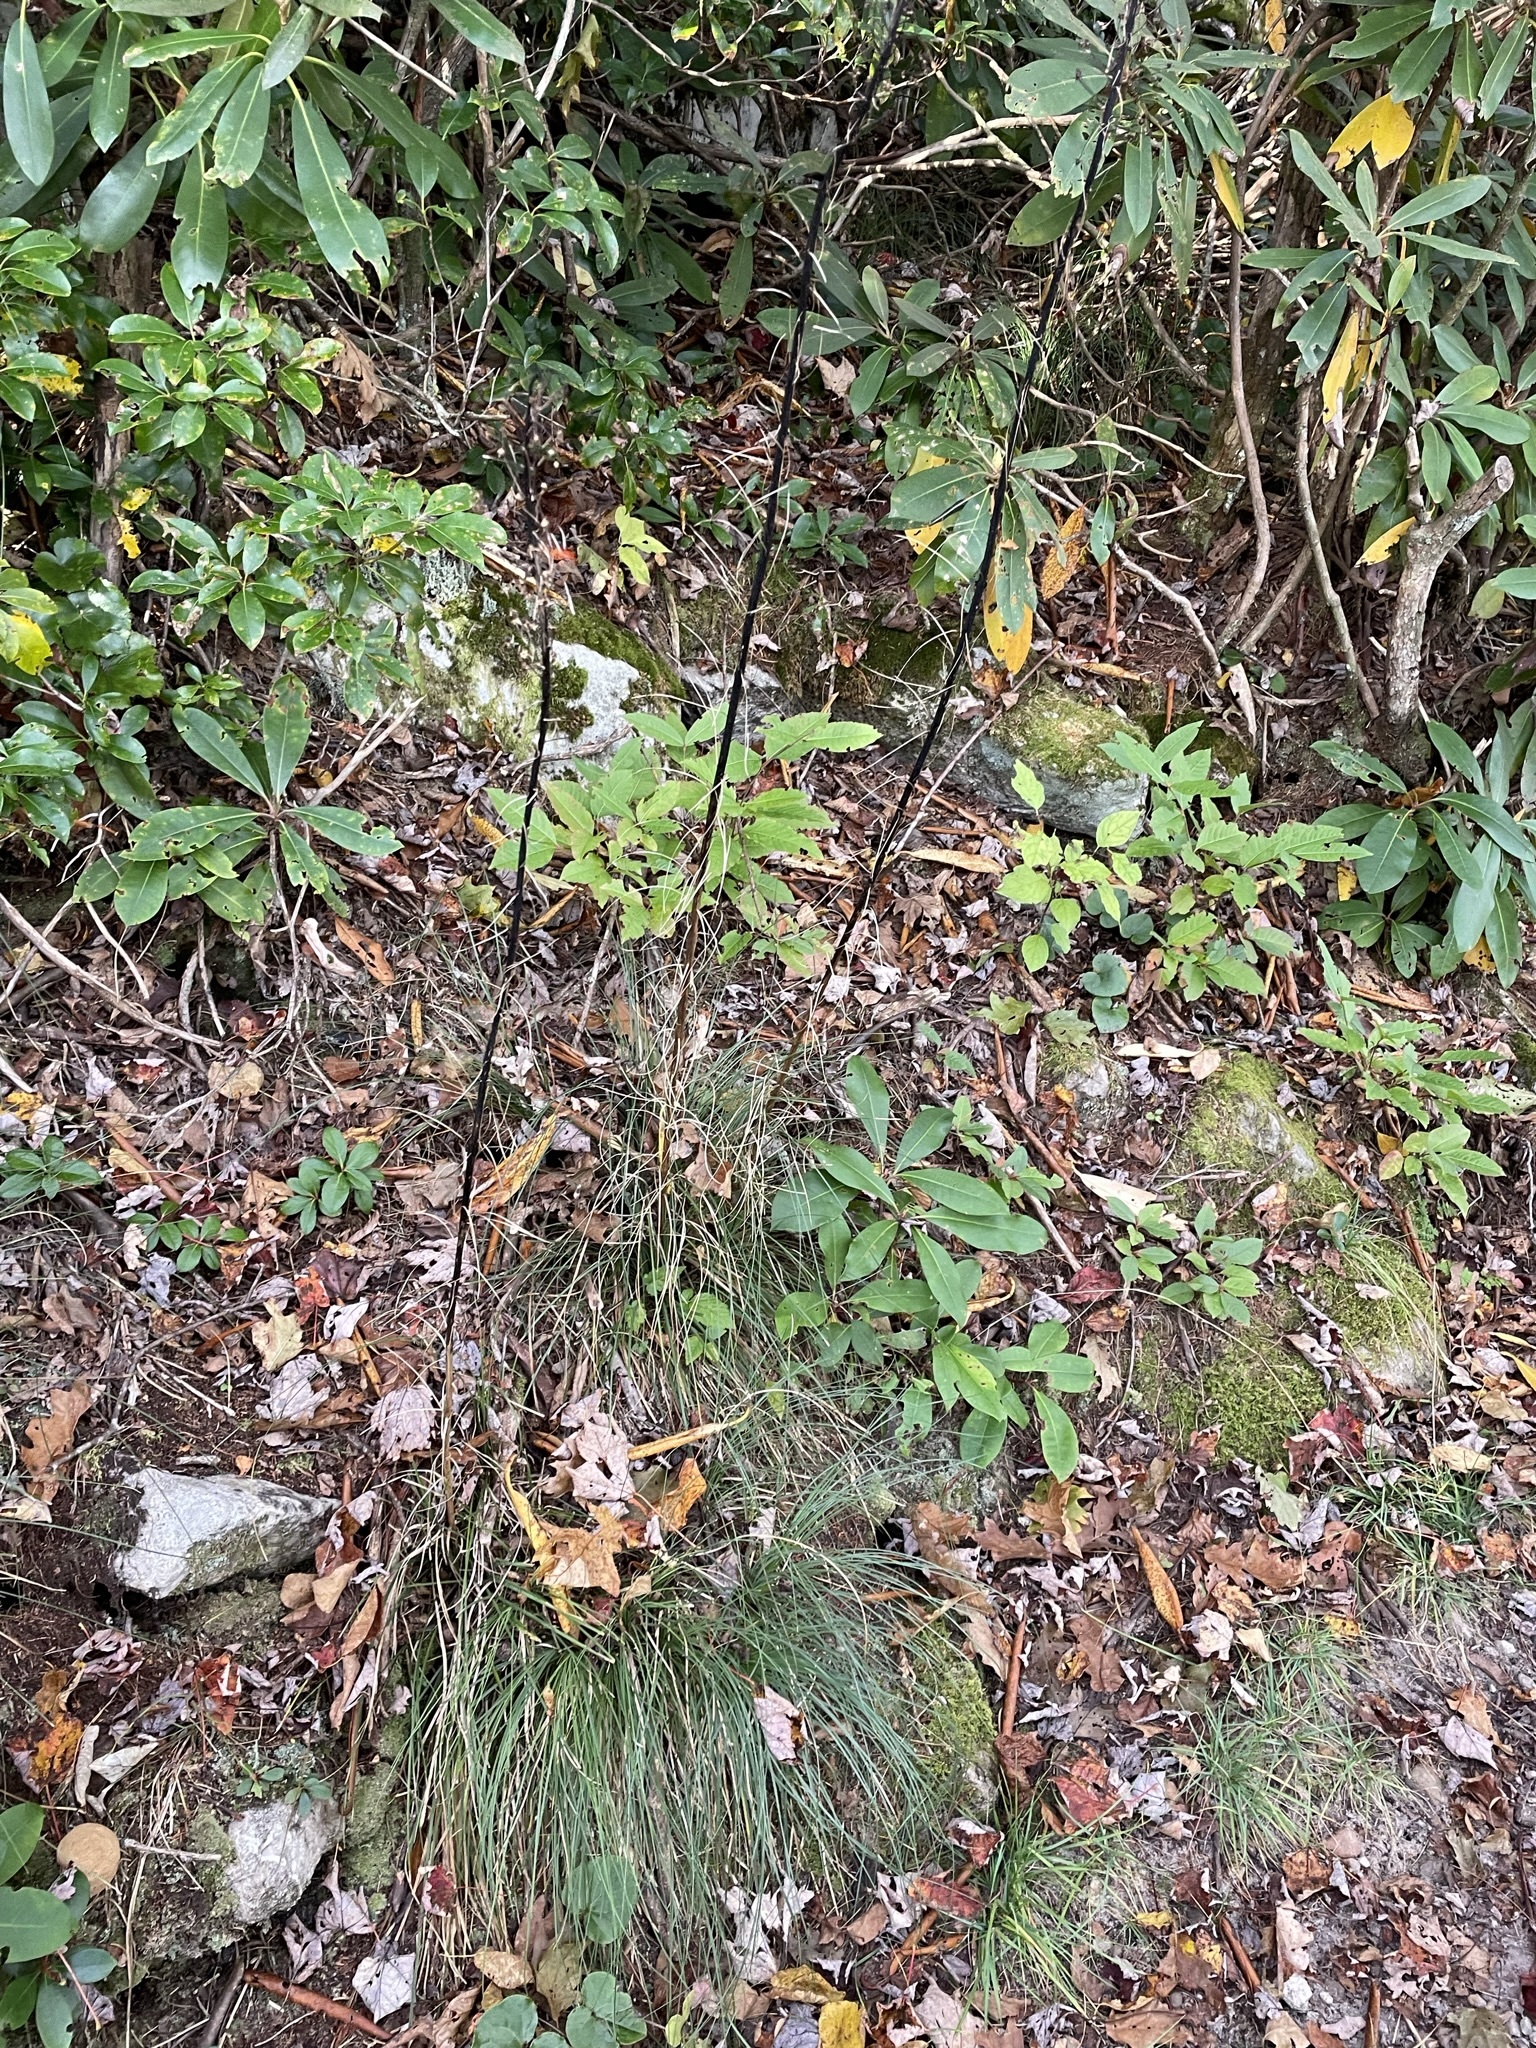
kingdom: Plantae
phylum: Tracheophyta
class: Liliopsida
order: Liliales
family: Melanthiaceae
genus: Xerophyllum
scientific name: Xerophyllum asphodeloides
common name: Mountain-asphodel
